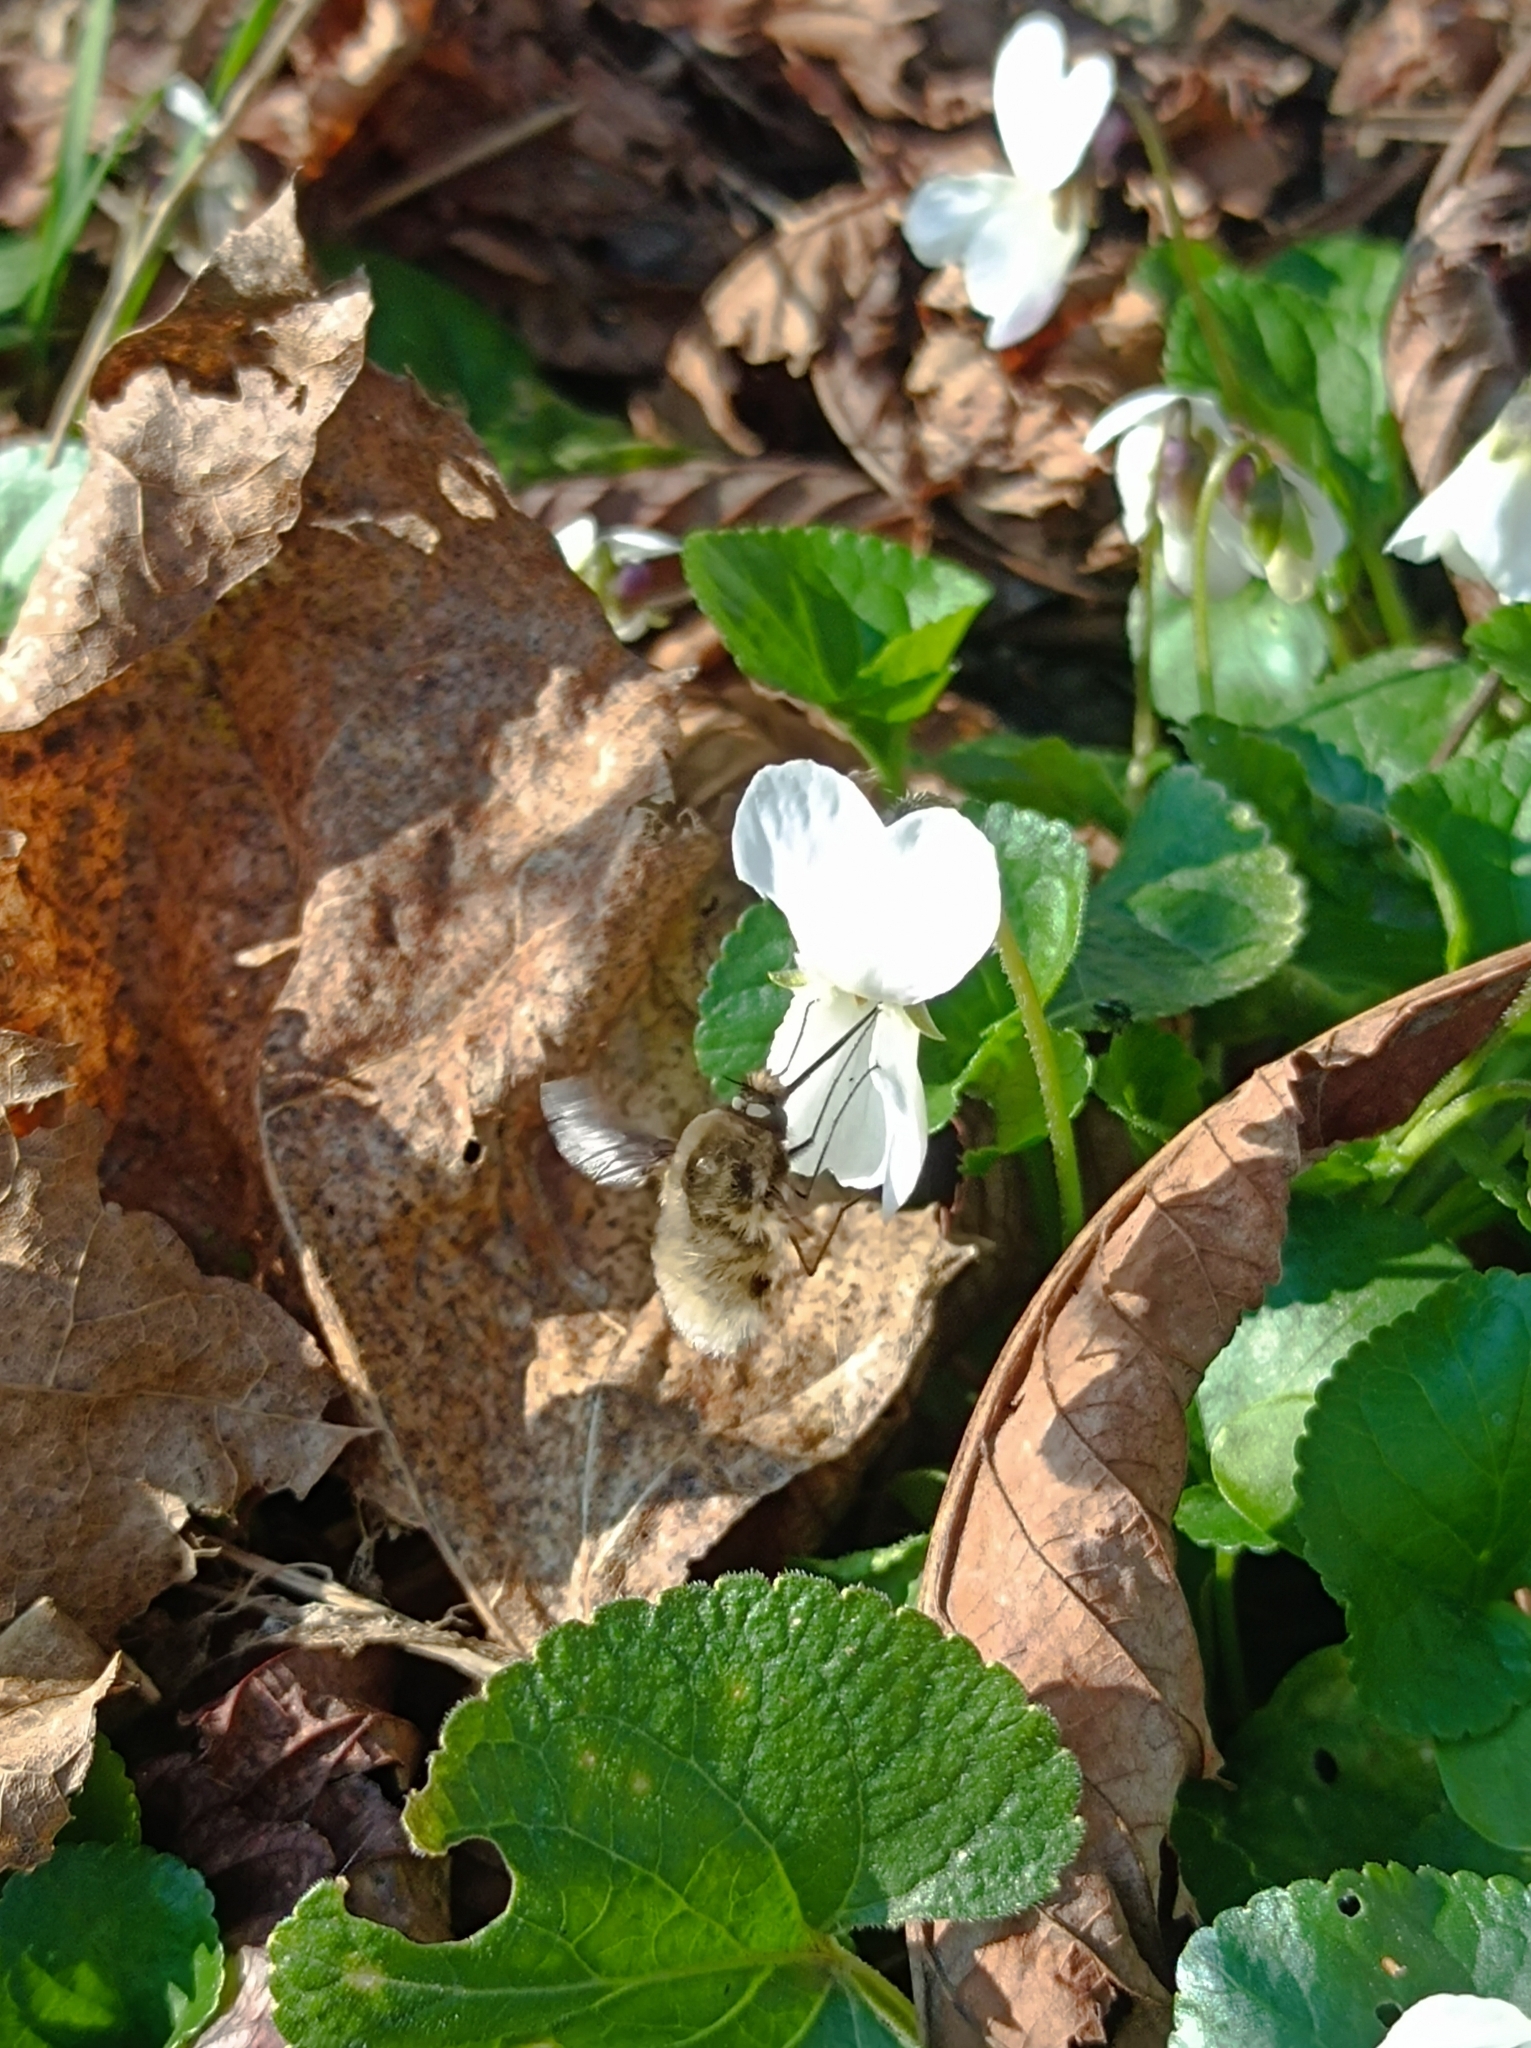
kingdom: Animalia
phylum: Arthropoda
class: Insecta
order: Diptera
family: Bombyliidae
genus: Bombylius
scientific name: Bombylius major
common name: Bee fly
